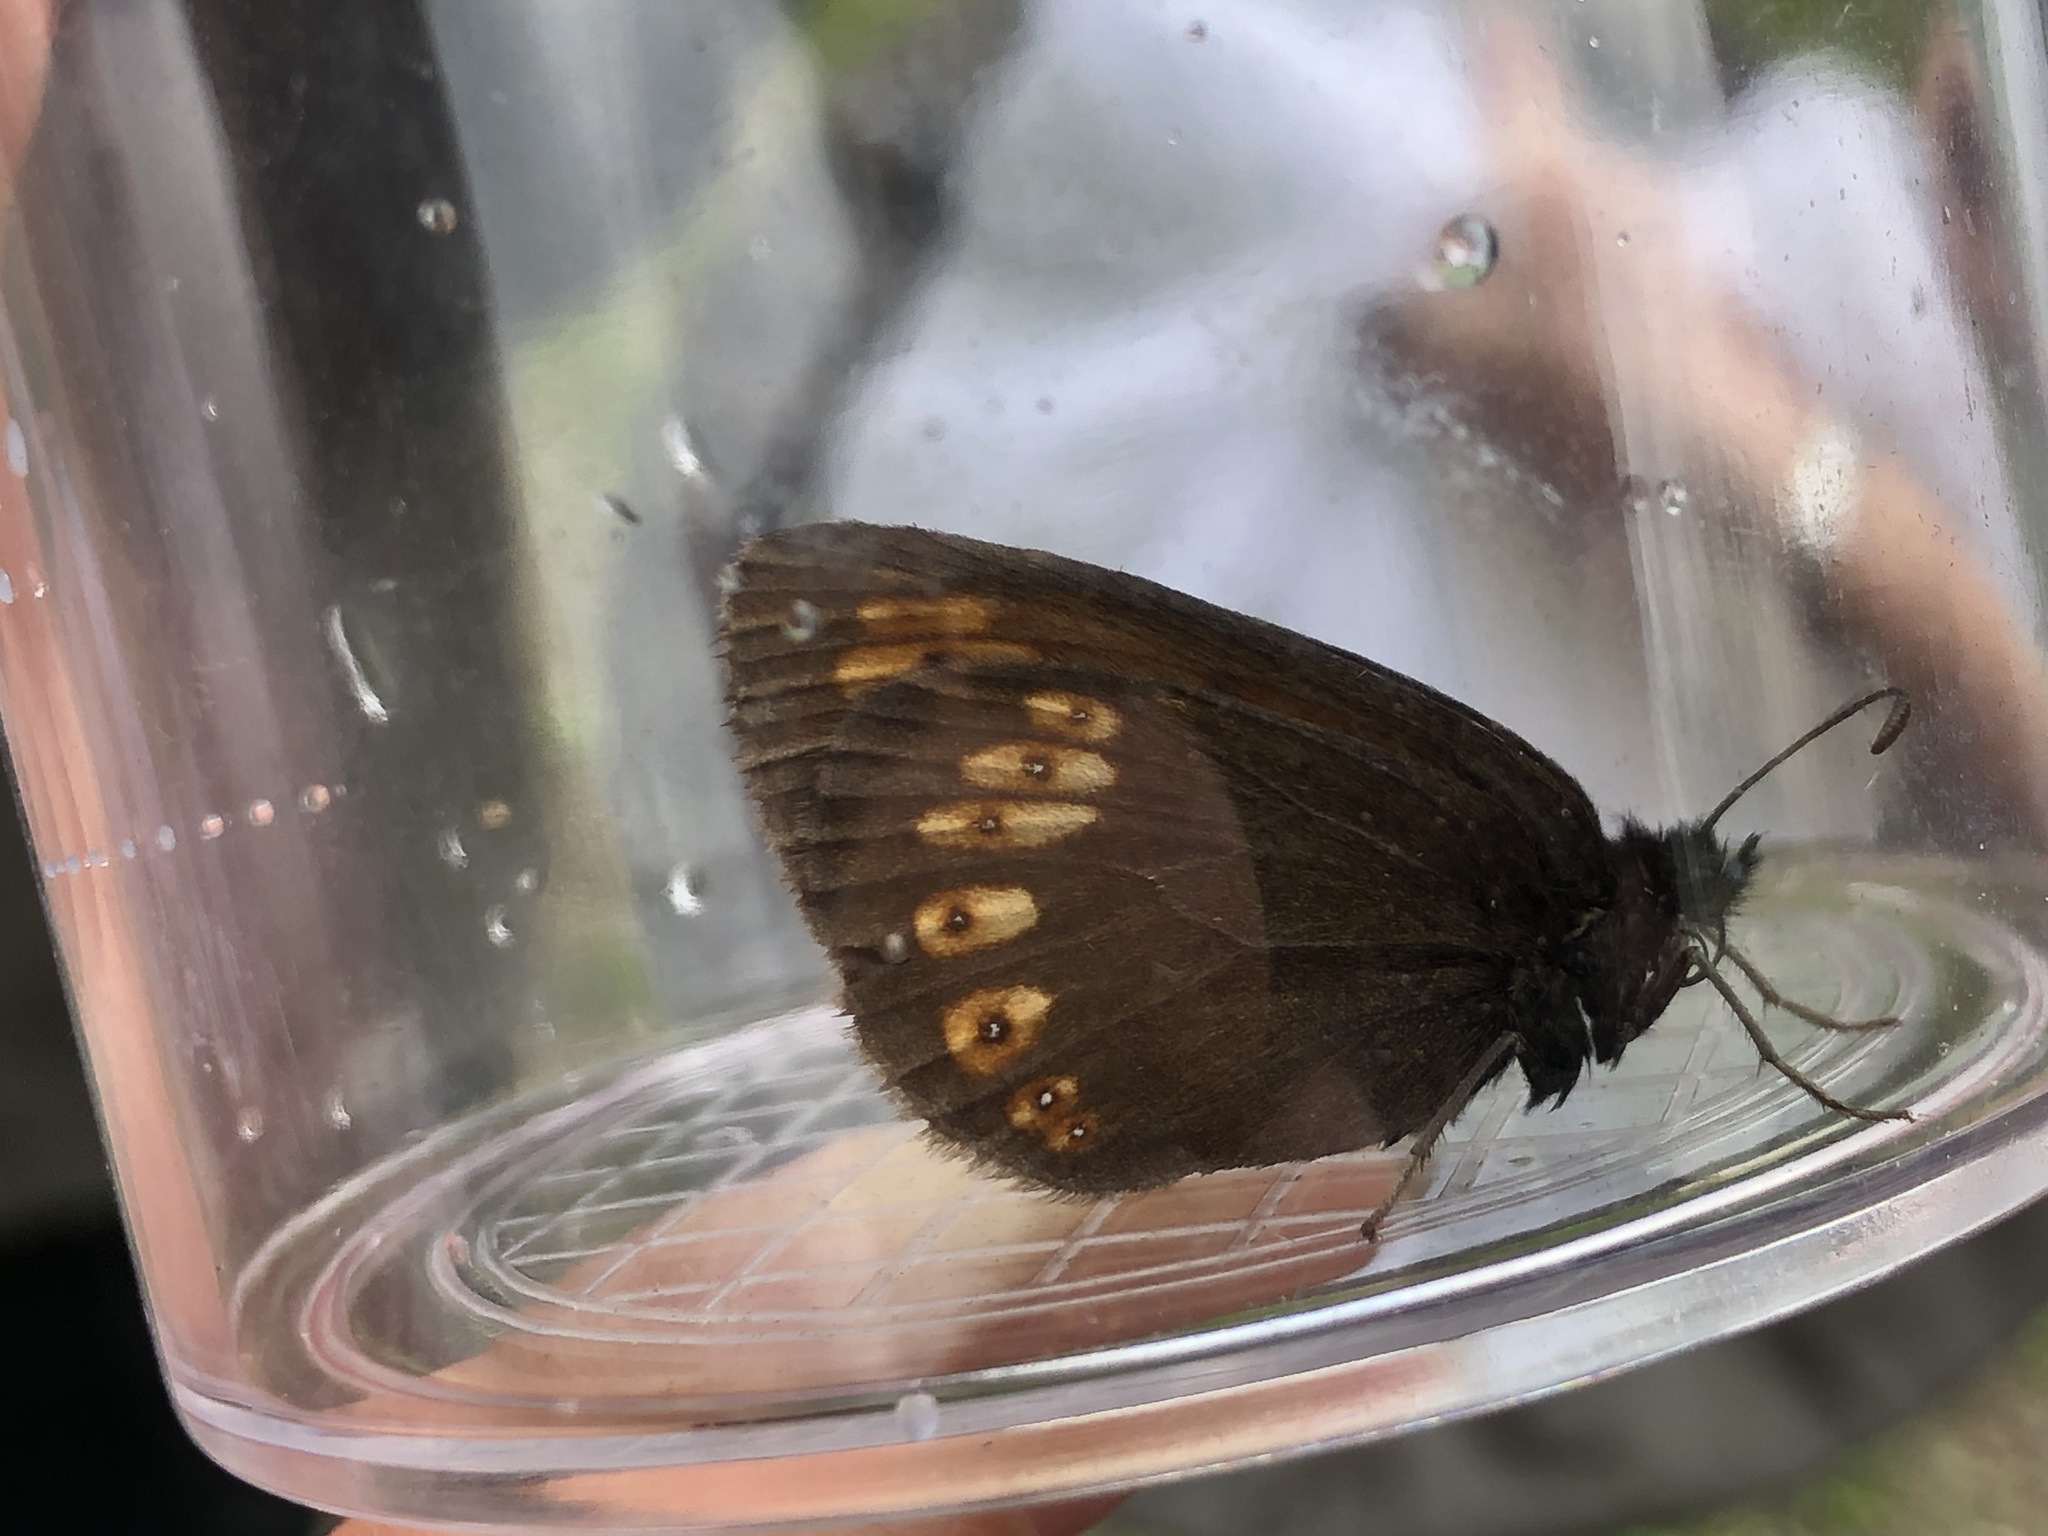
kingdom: Animalia
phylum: Arthropoda
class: Insecta
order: Lepidoptera
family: Nymphalidae
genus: Erebia
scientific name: Erebia alberganus
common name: Almond-eyed ringlet
